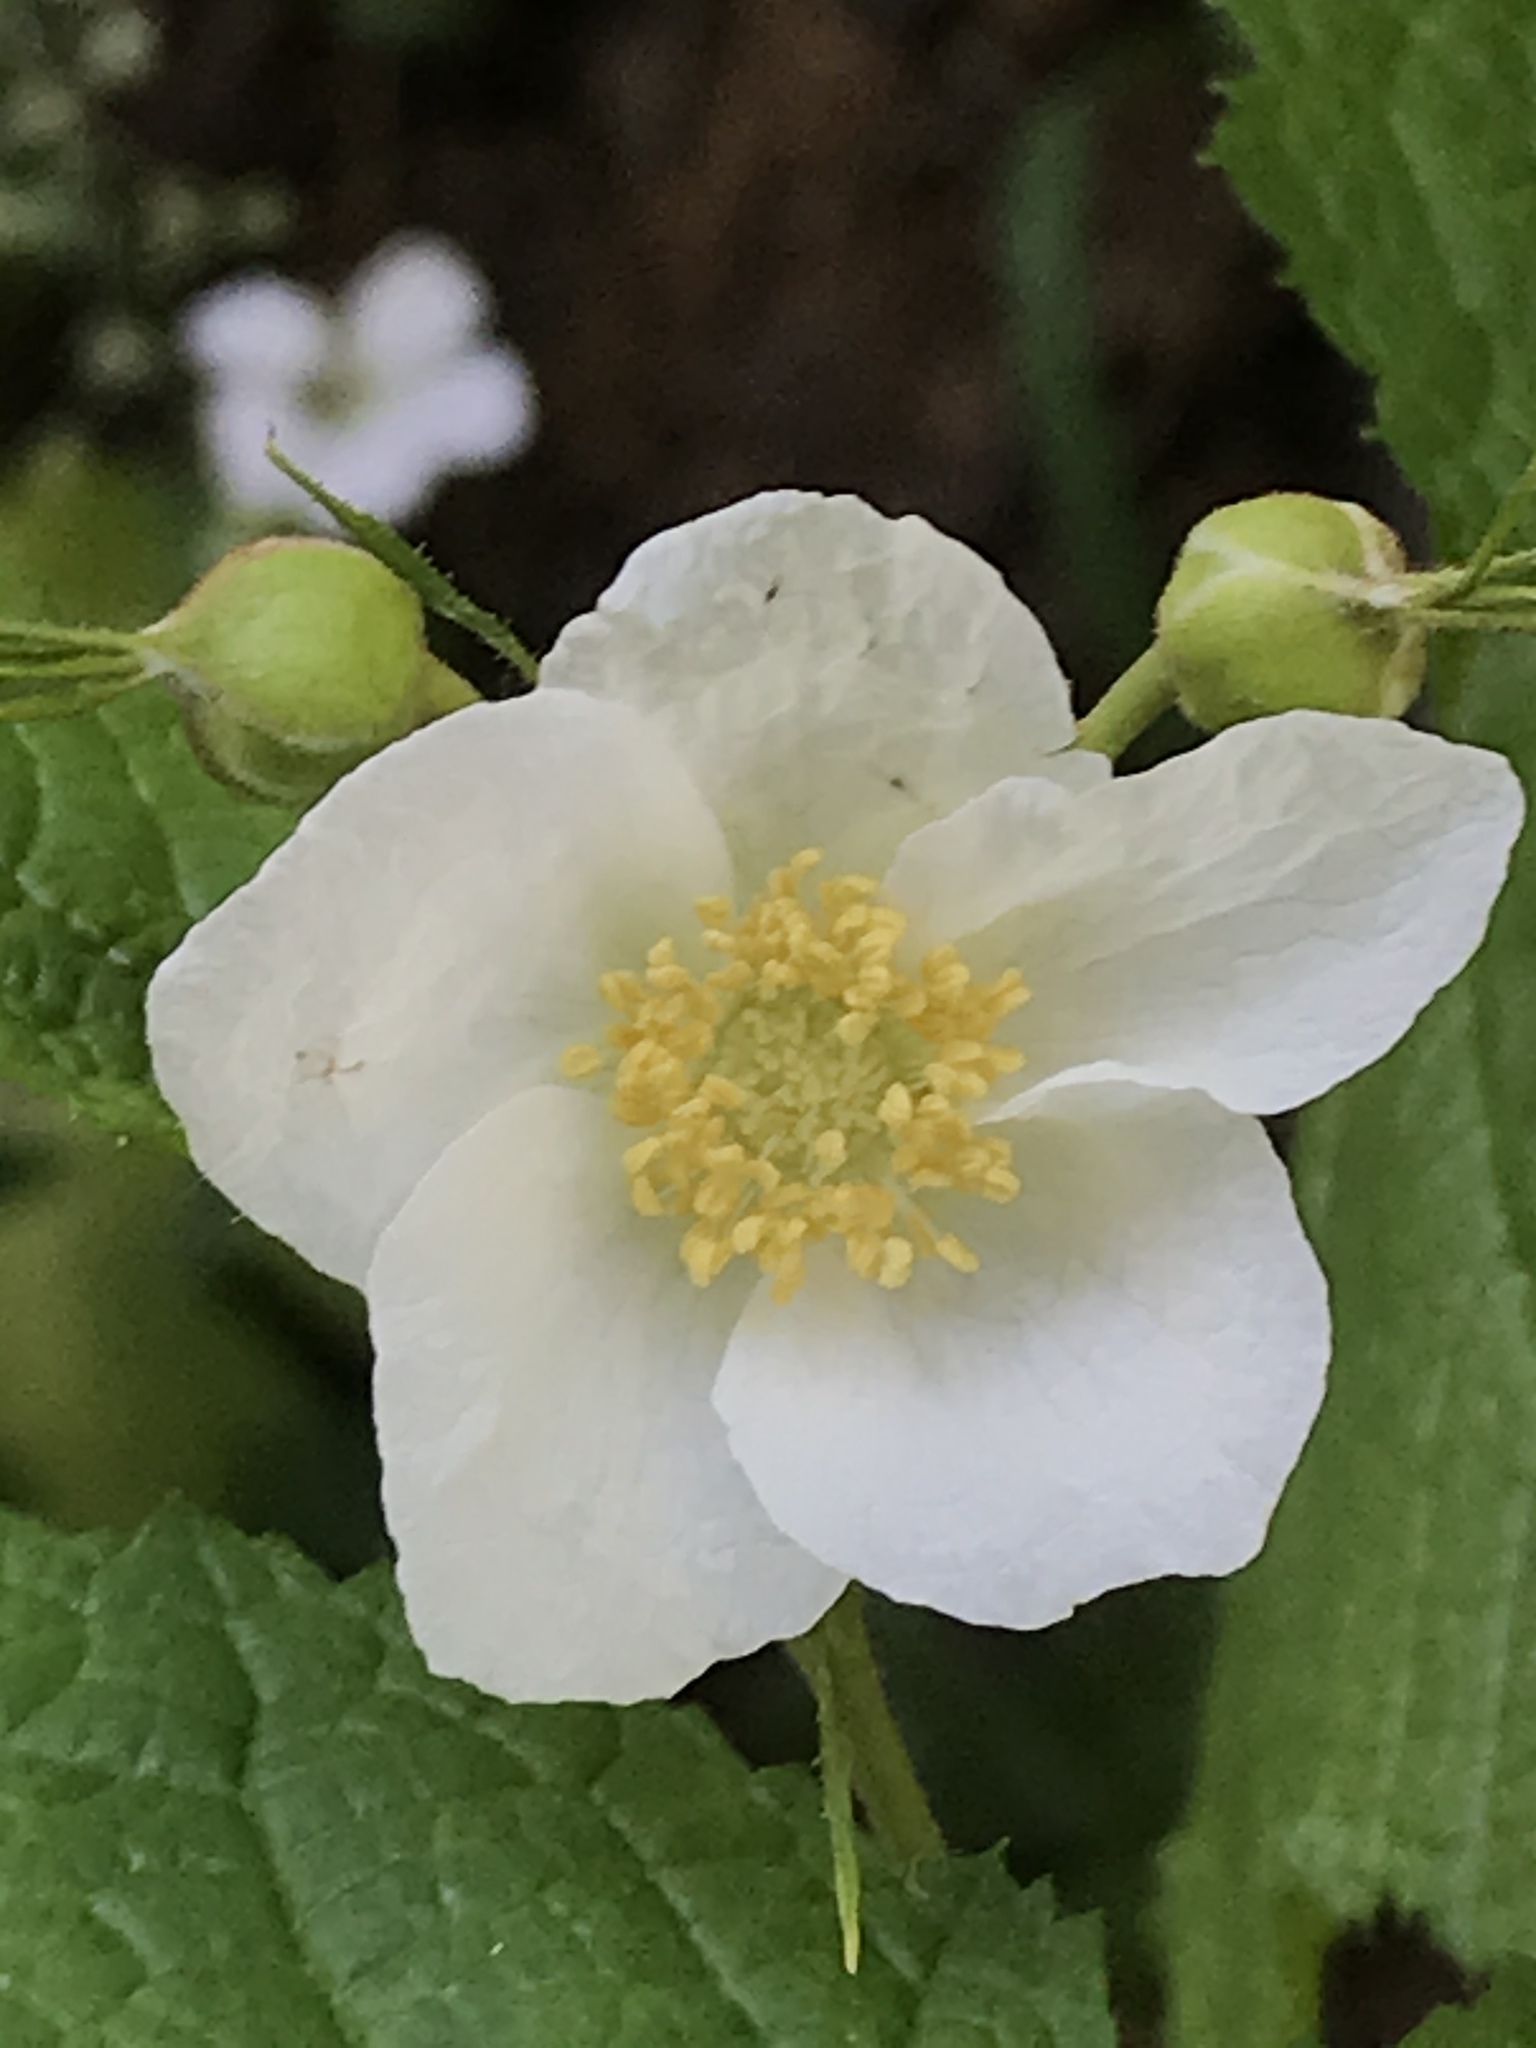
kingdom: Plantae
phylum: Tracheophyta
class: Magnoliopsida
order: Rosales
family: Rosaceae
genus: Rubus
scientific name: Rubus parviflorus
